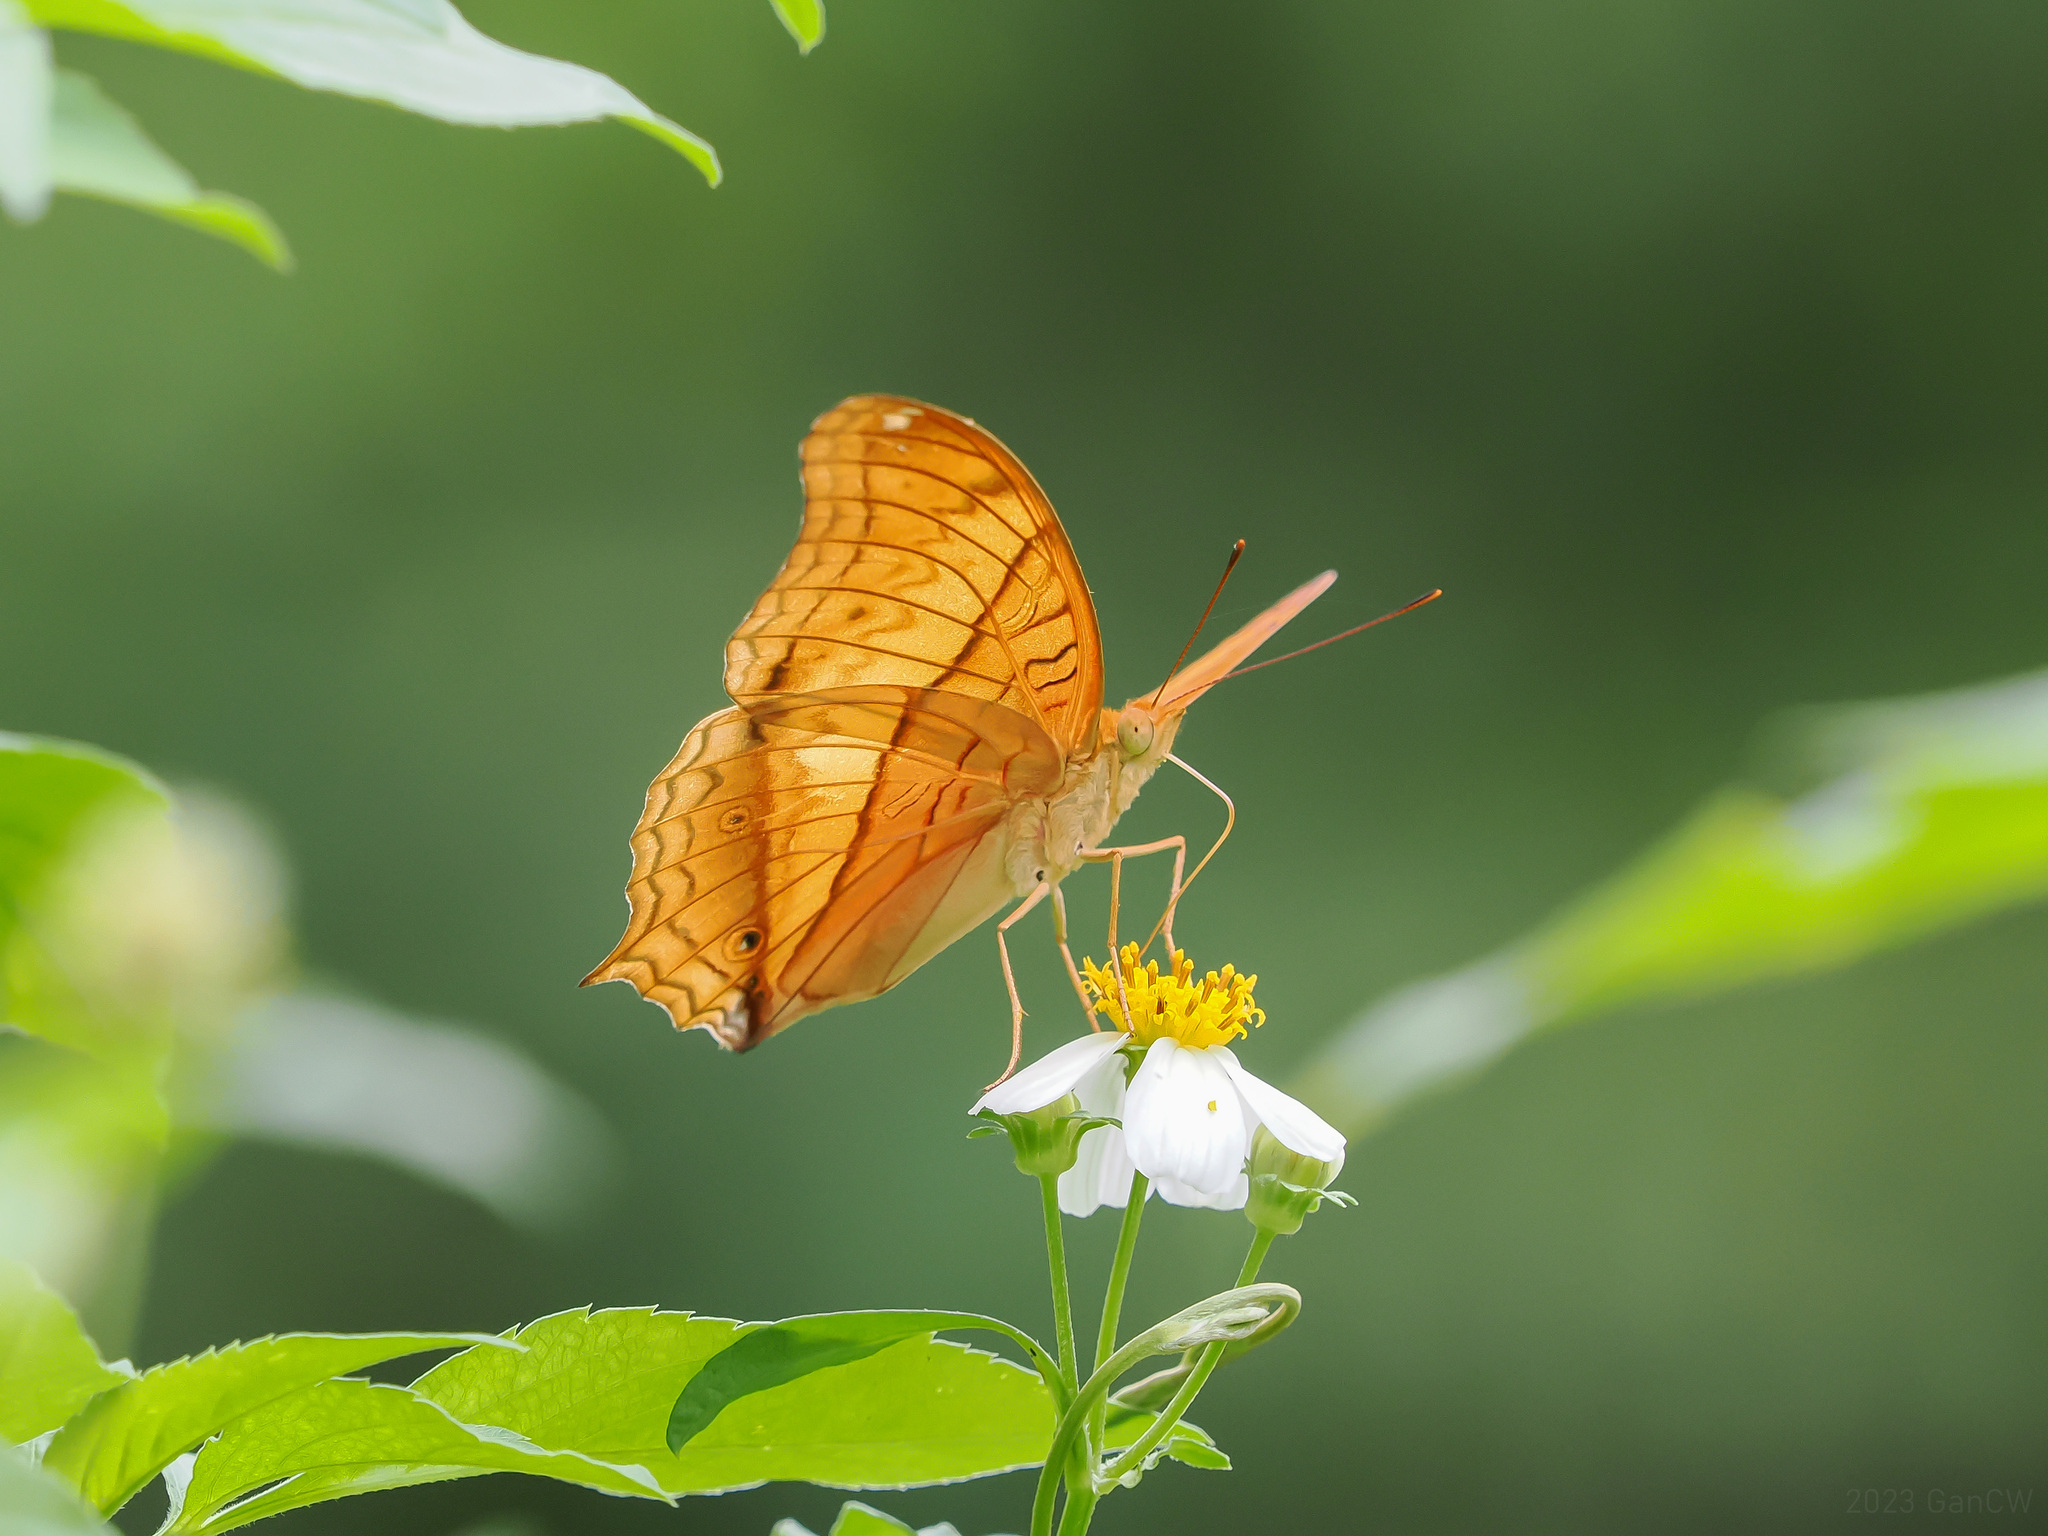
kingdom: Animalia
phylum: Arthropoda
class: Insecta
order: Lepidoptera
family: Nymphalidae
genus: Vindula
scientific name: Vindula deione
